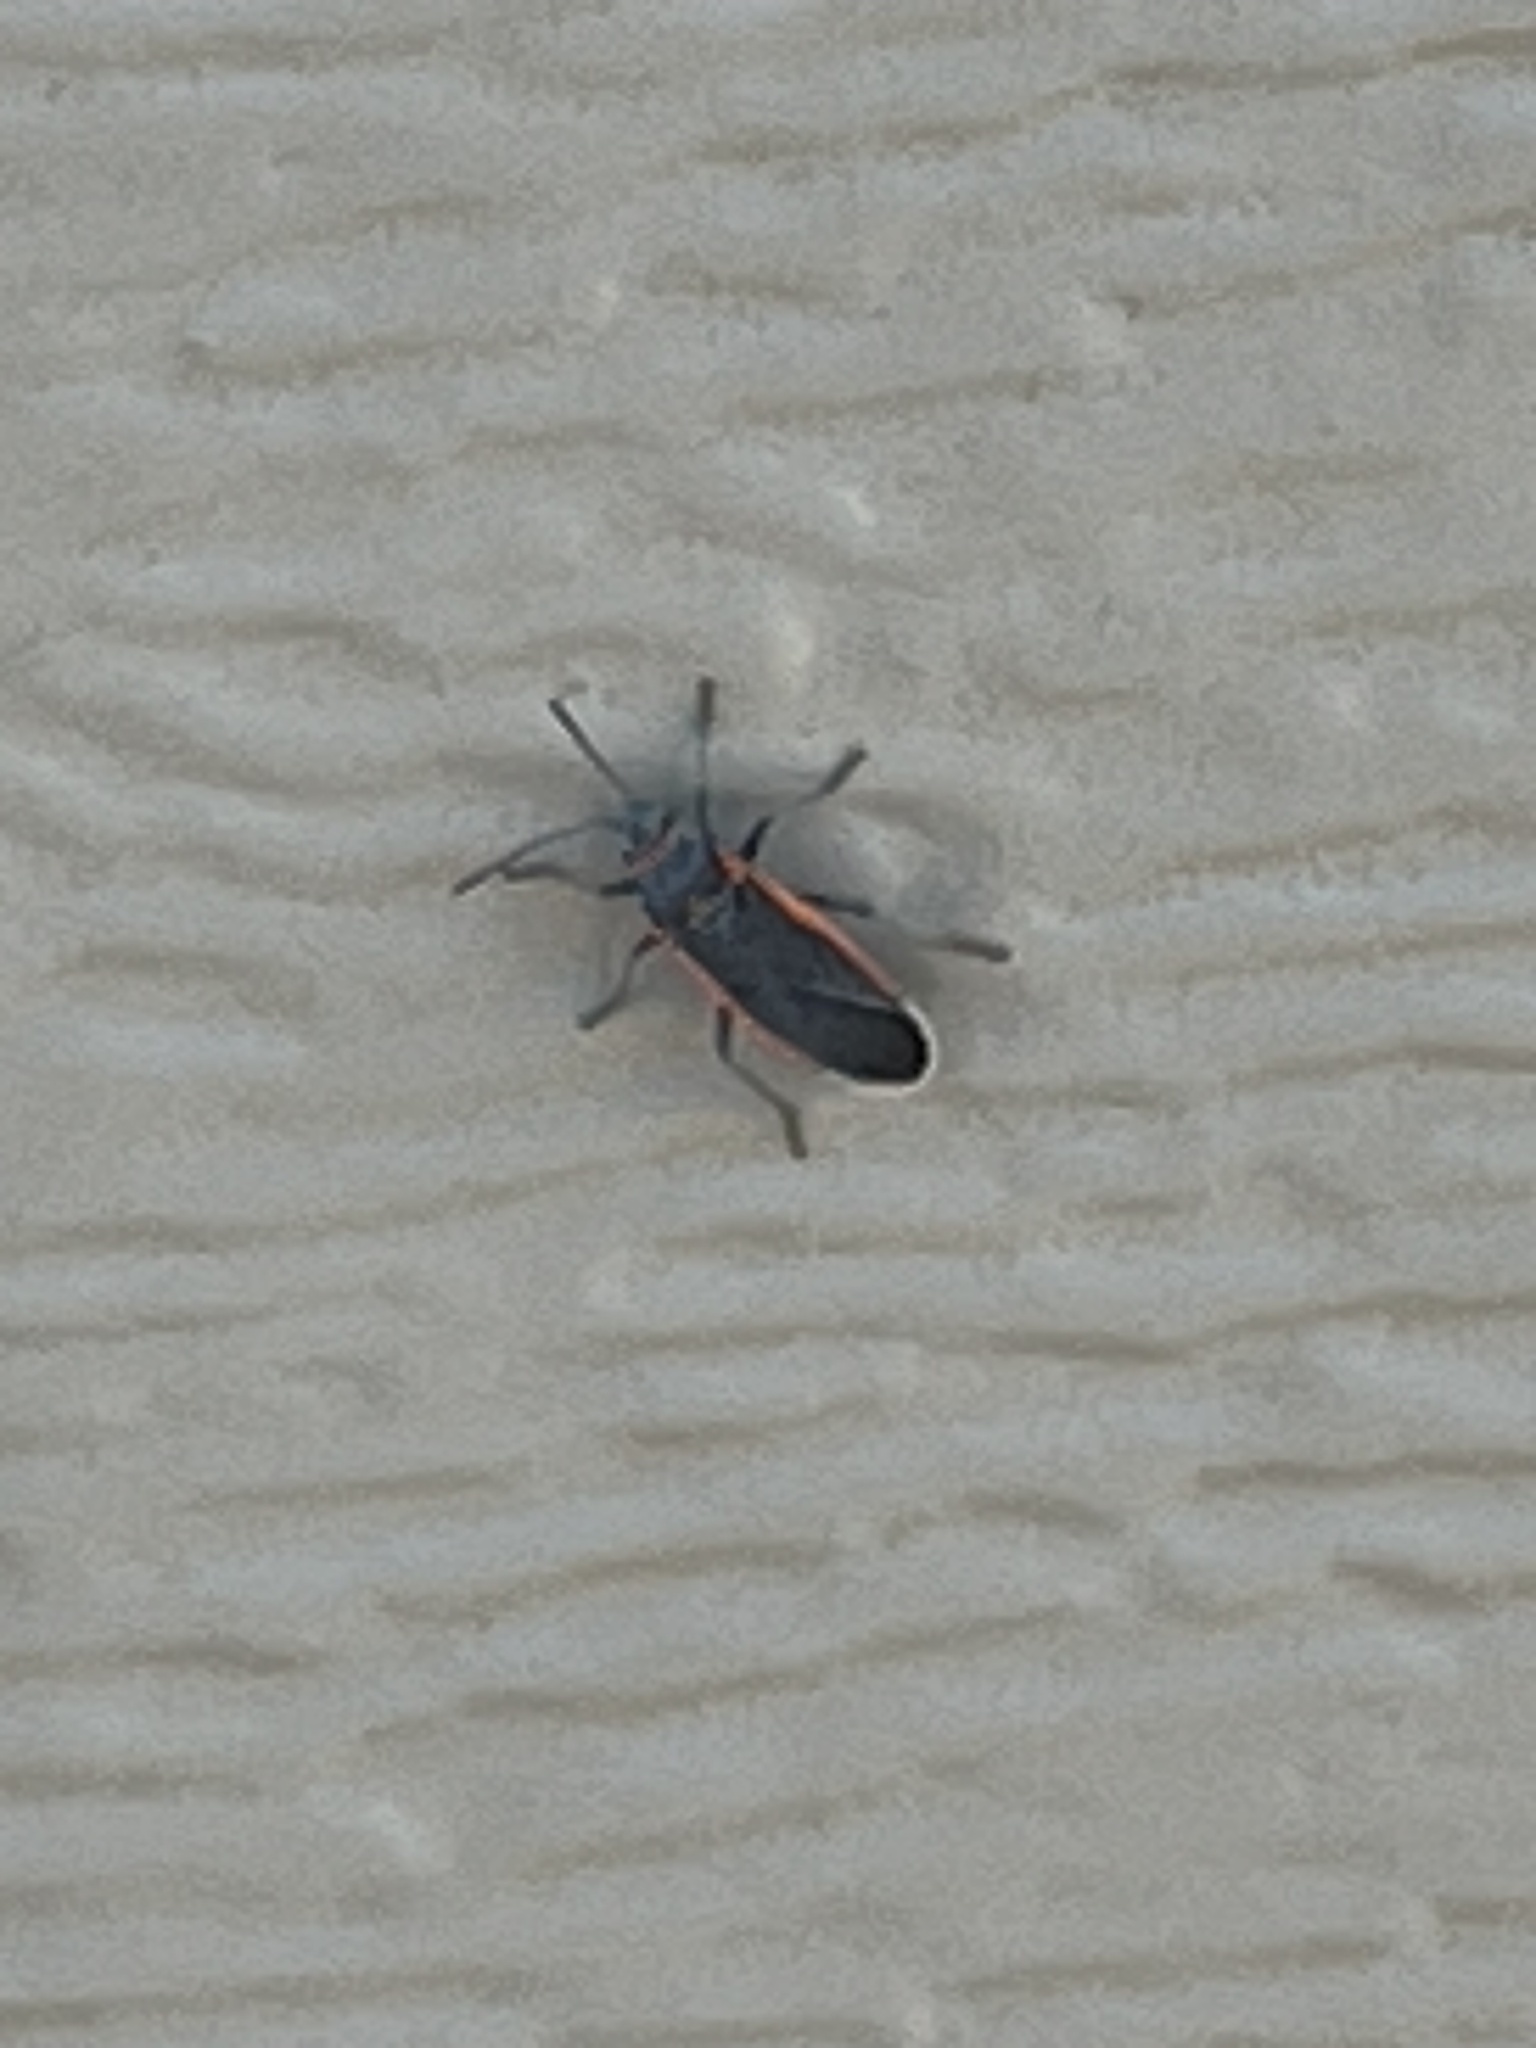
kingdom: Animalia
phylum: Arthropoda
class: Insecta
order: Hemiptera
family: Lygaeidae
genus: Melacoryphus
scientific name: Melacoryphus lateralis
